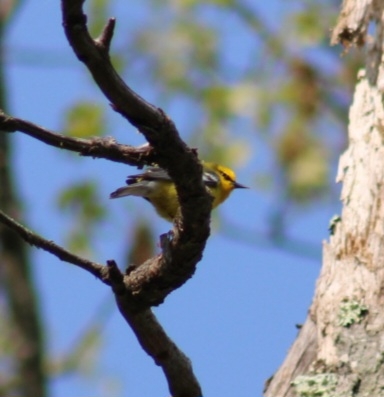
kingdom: Animalia
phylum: Chordata
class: Aves
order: Passeriformes
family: Parulidae
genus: Vermivora
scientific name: Vermivora cyanoptera
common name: Blue-winged warbler
